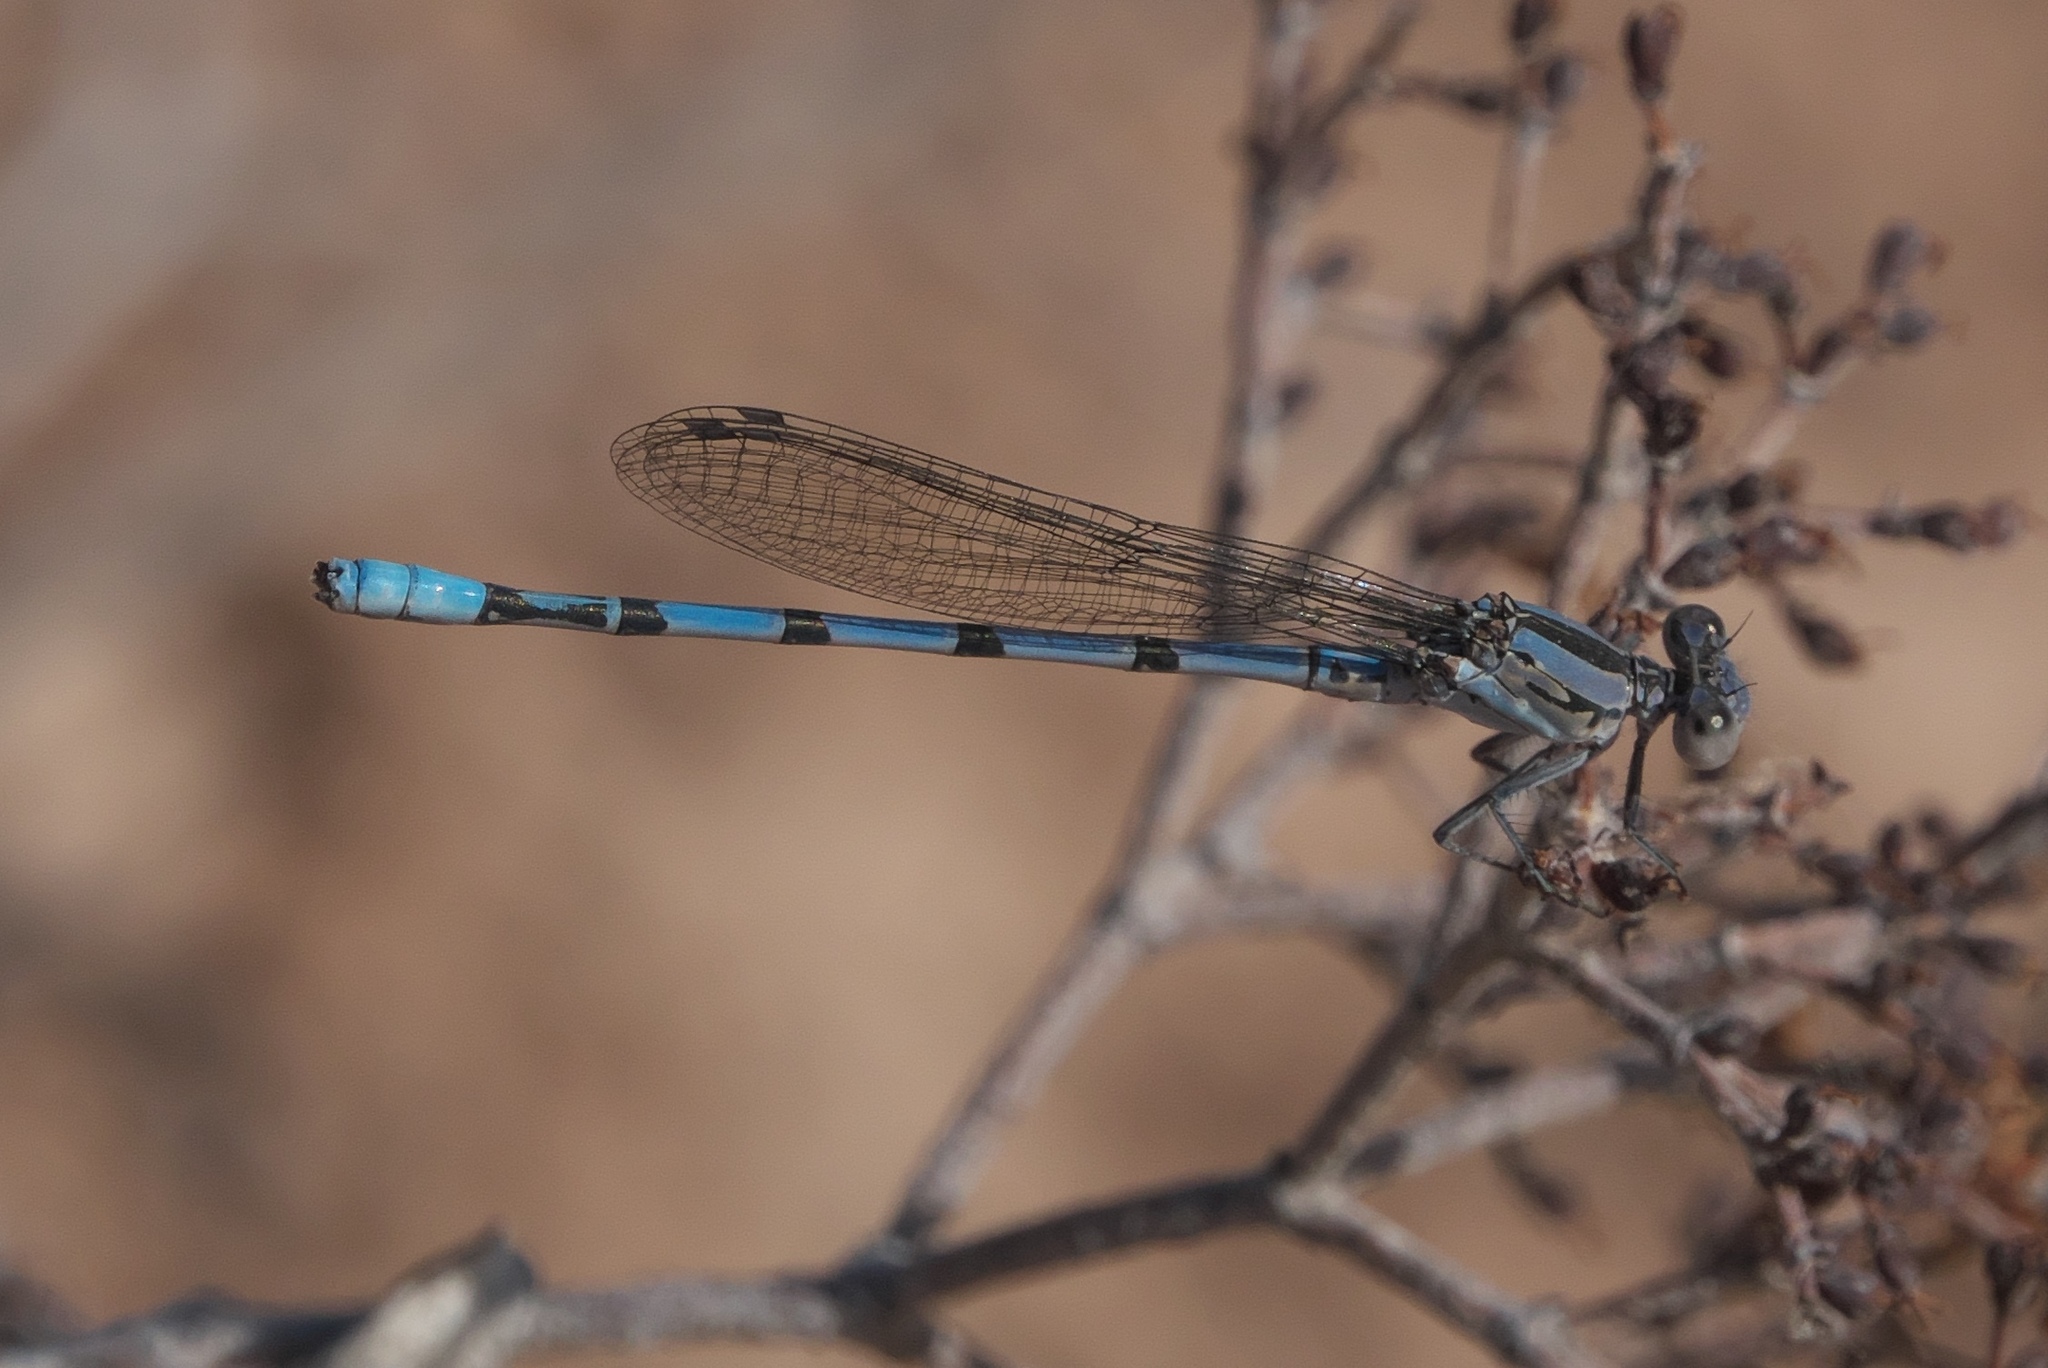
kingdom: Animalia
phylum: Arthropoda
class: Insecta
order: Odonata
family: Coenagrionidae
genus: Argia
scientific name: Argia agrioides
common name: California dancer
